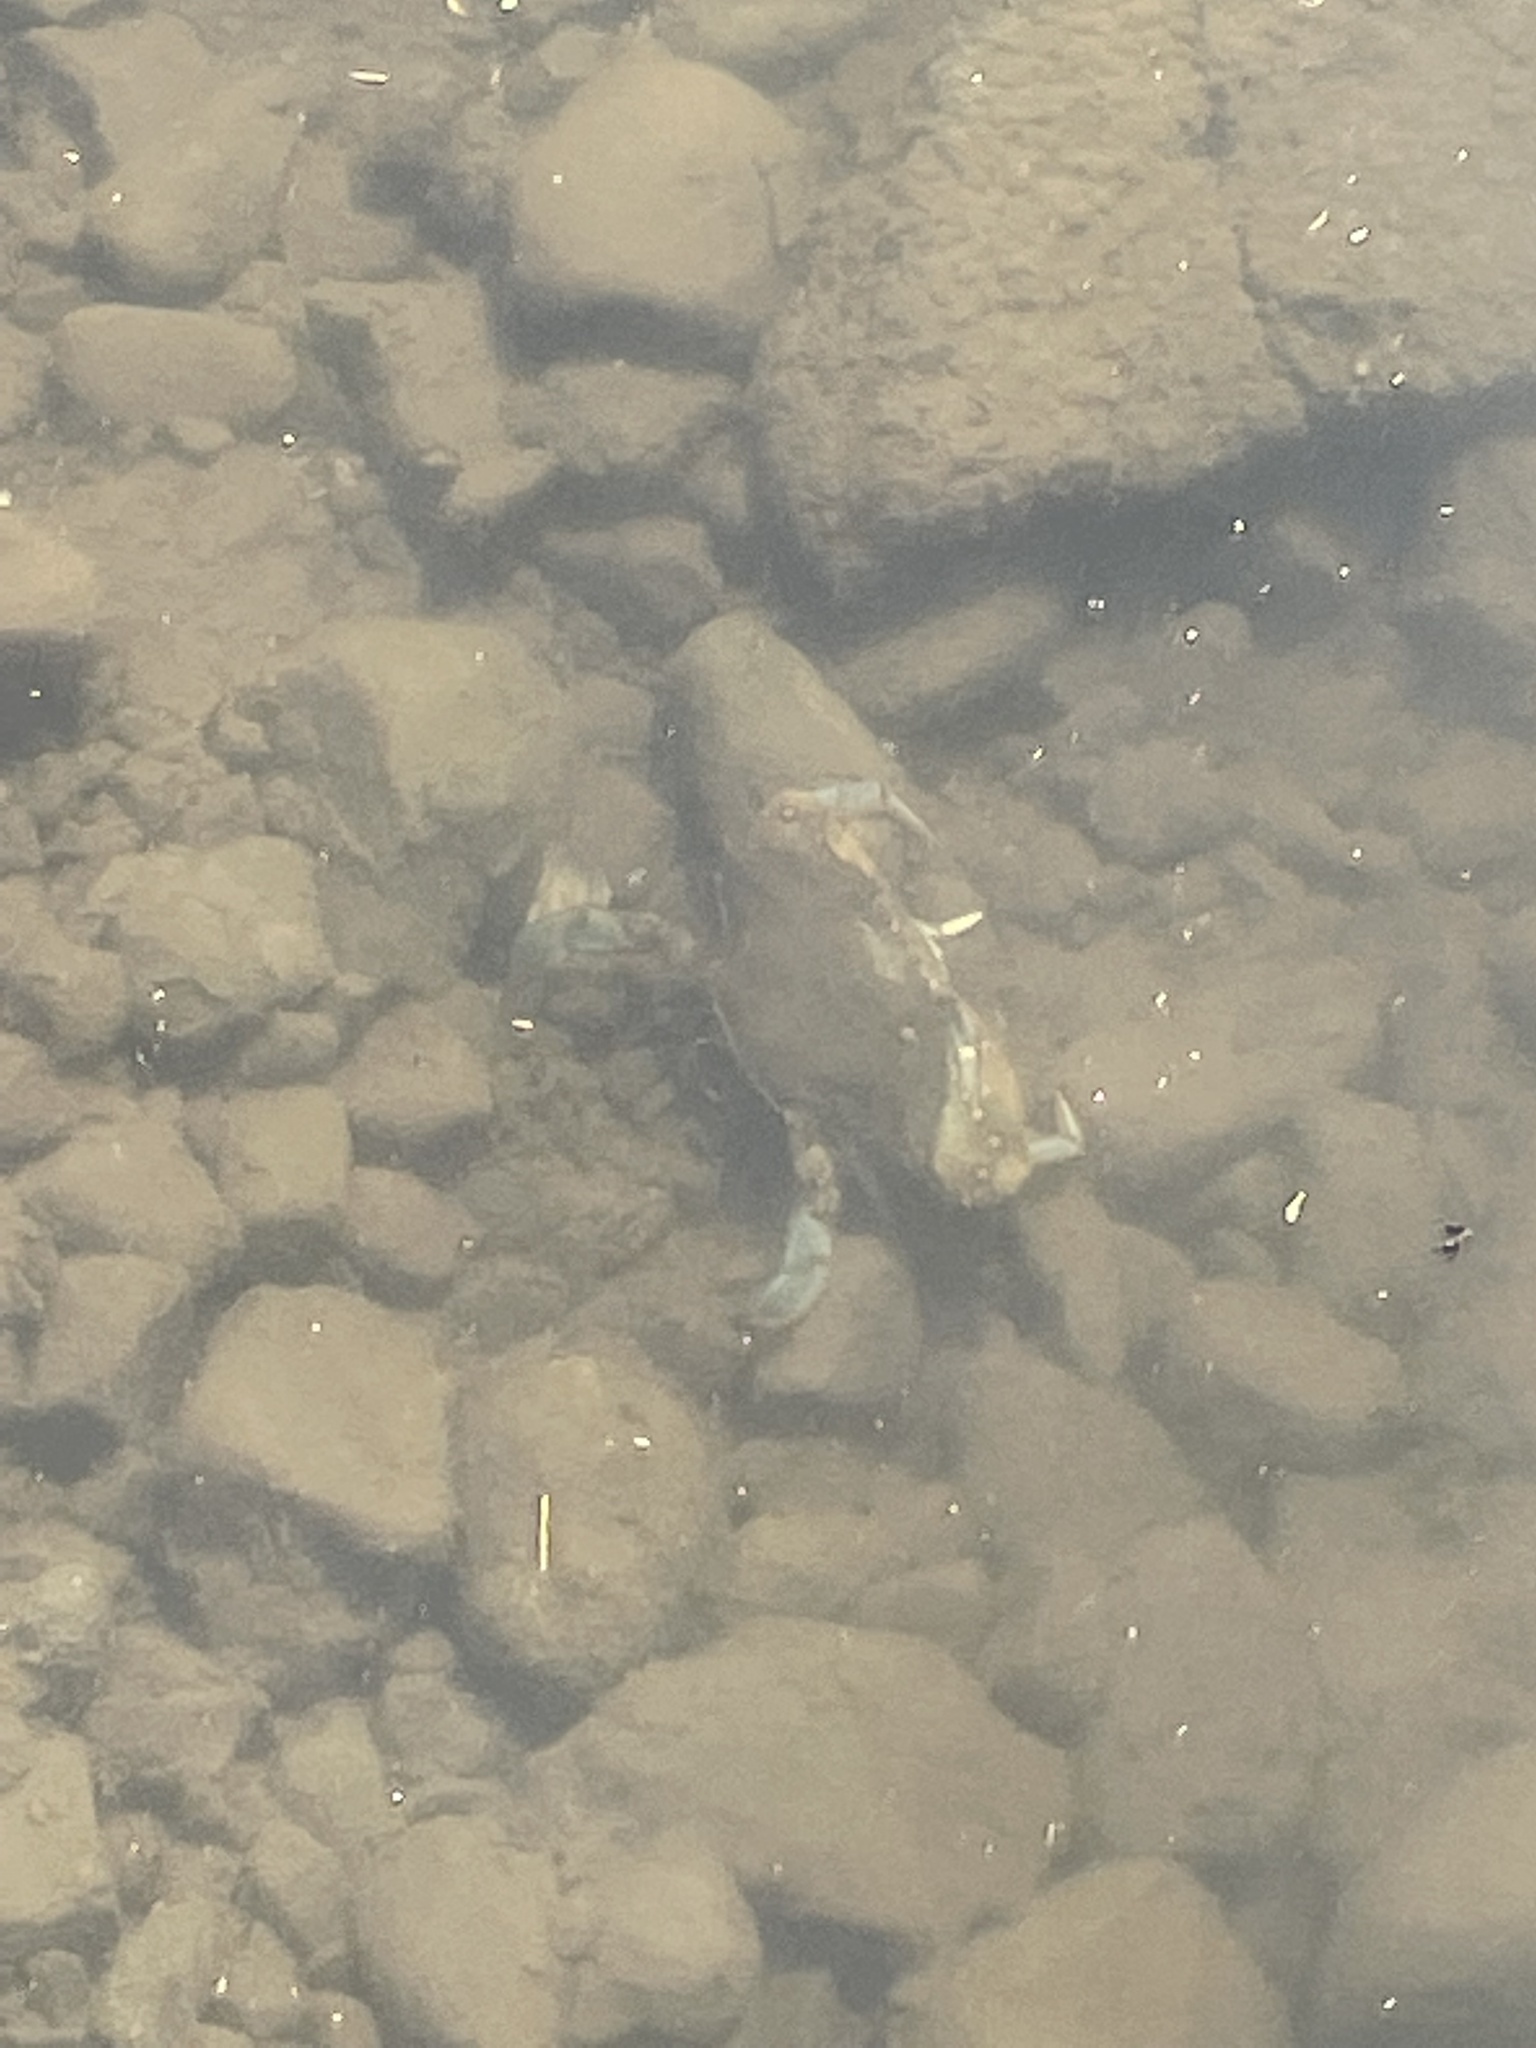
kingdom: Animalia
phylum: Arthropoda
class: Malacostraca
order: Decapoda
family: Portunidae
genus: Callinectes
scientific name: Callinectes sapidus
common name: Blue crab
